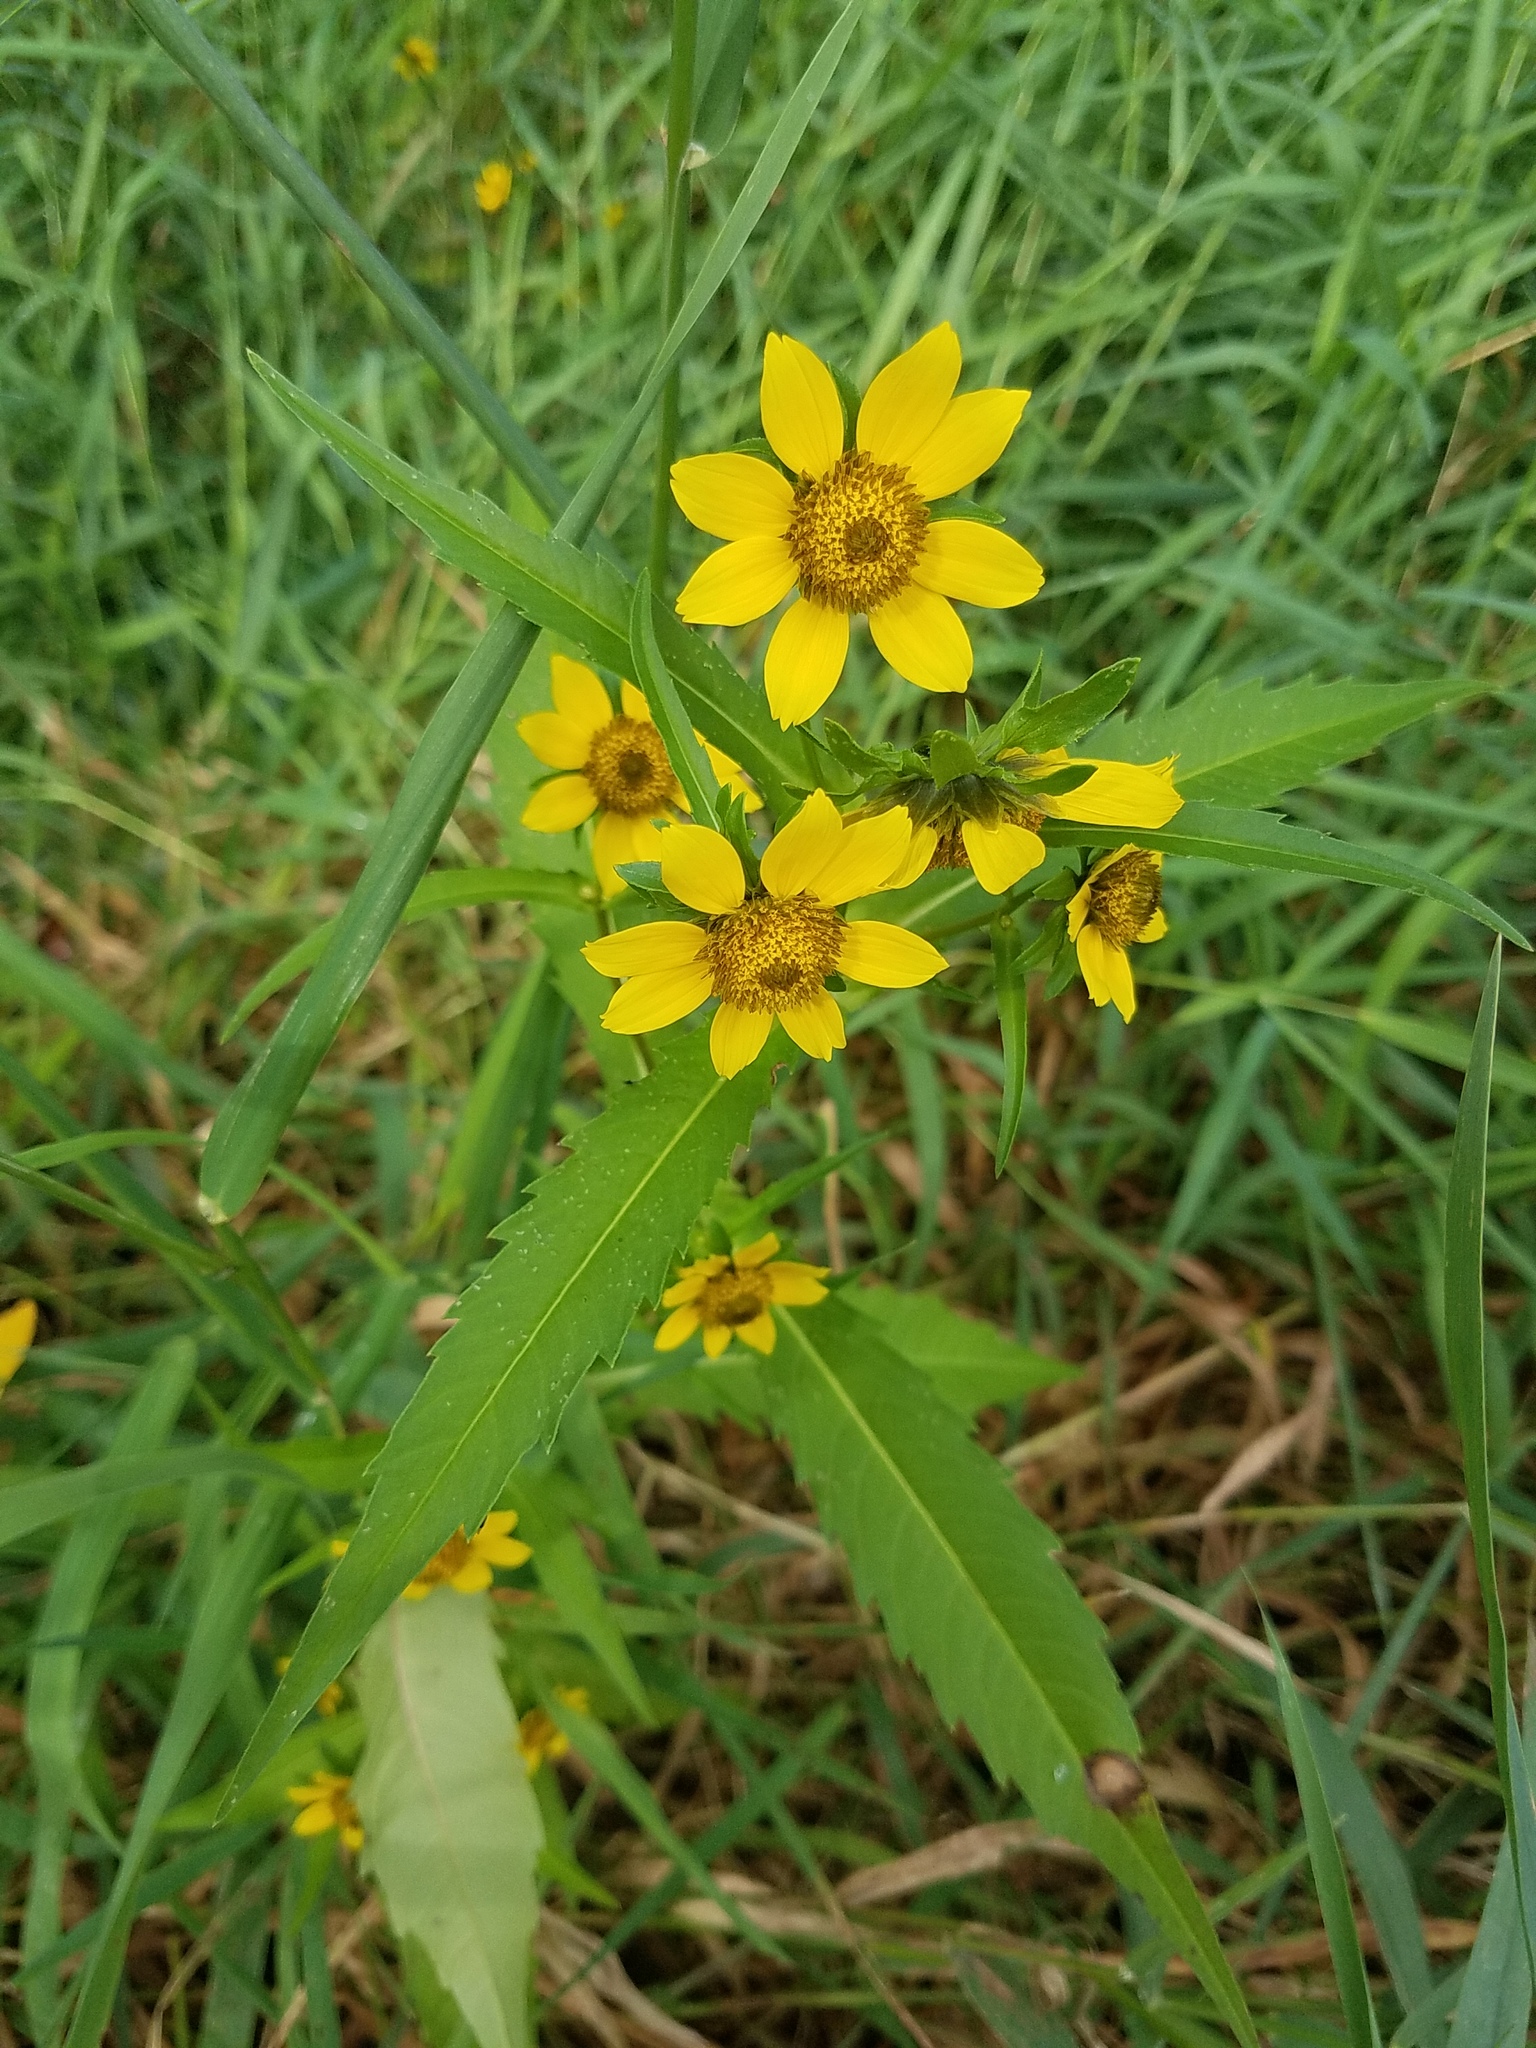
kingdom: Plantae
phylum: Tracheophyta
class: Magnoliopsida
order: Asterales
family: Asteraceae
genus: Bidens
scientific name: Bidens cernua
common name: Nodding bur-marigold
